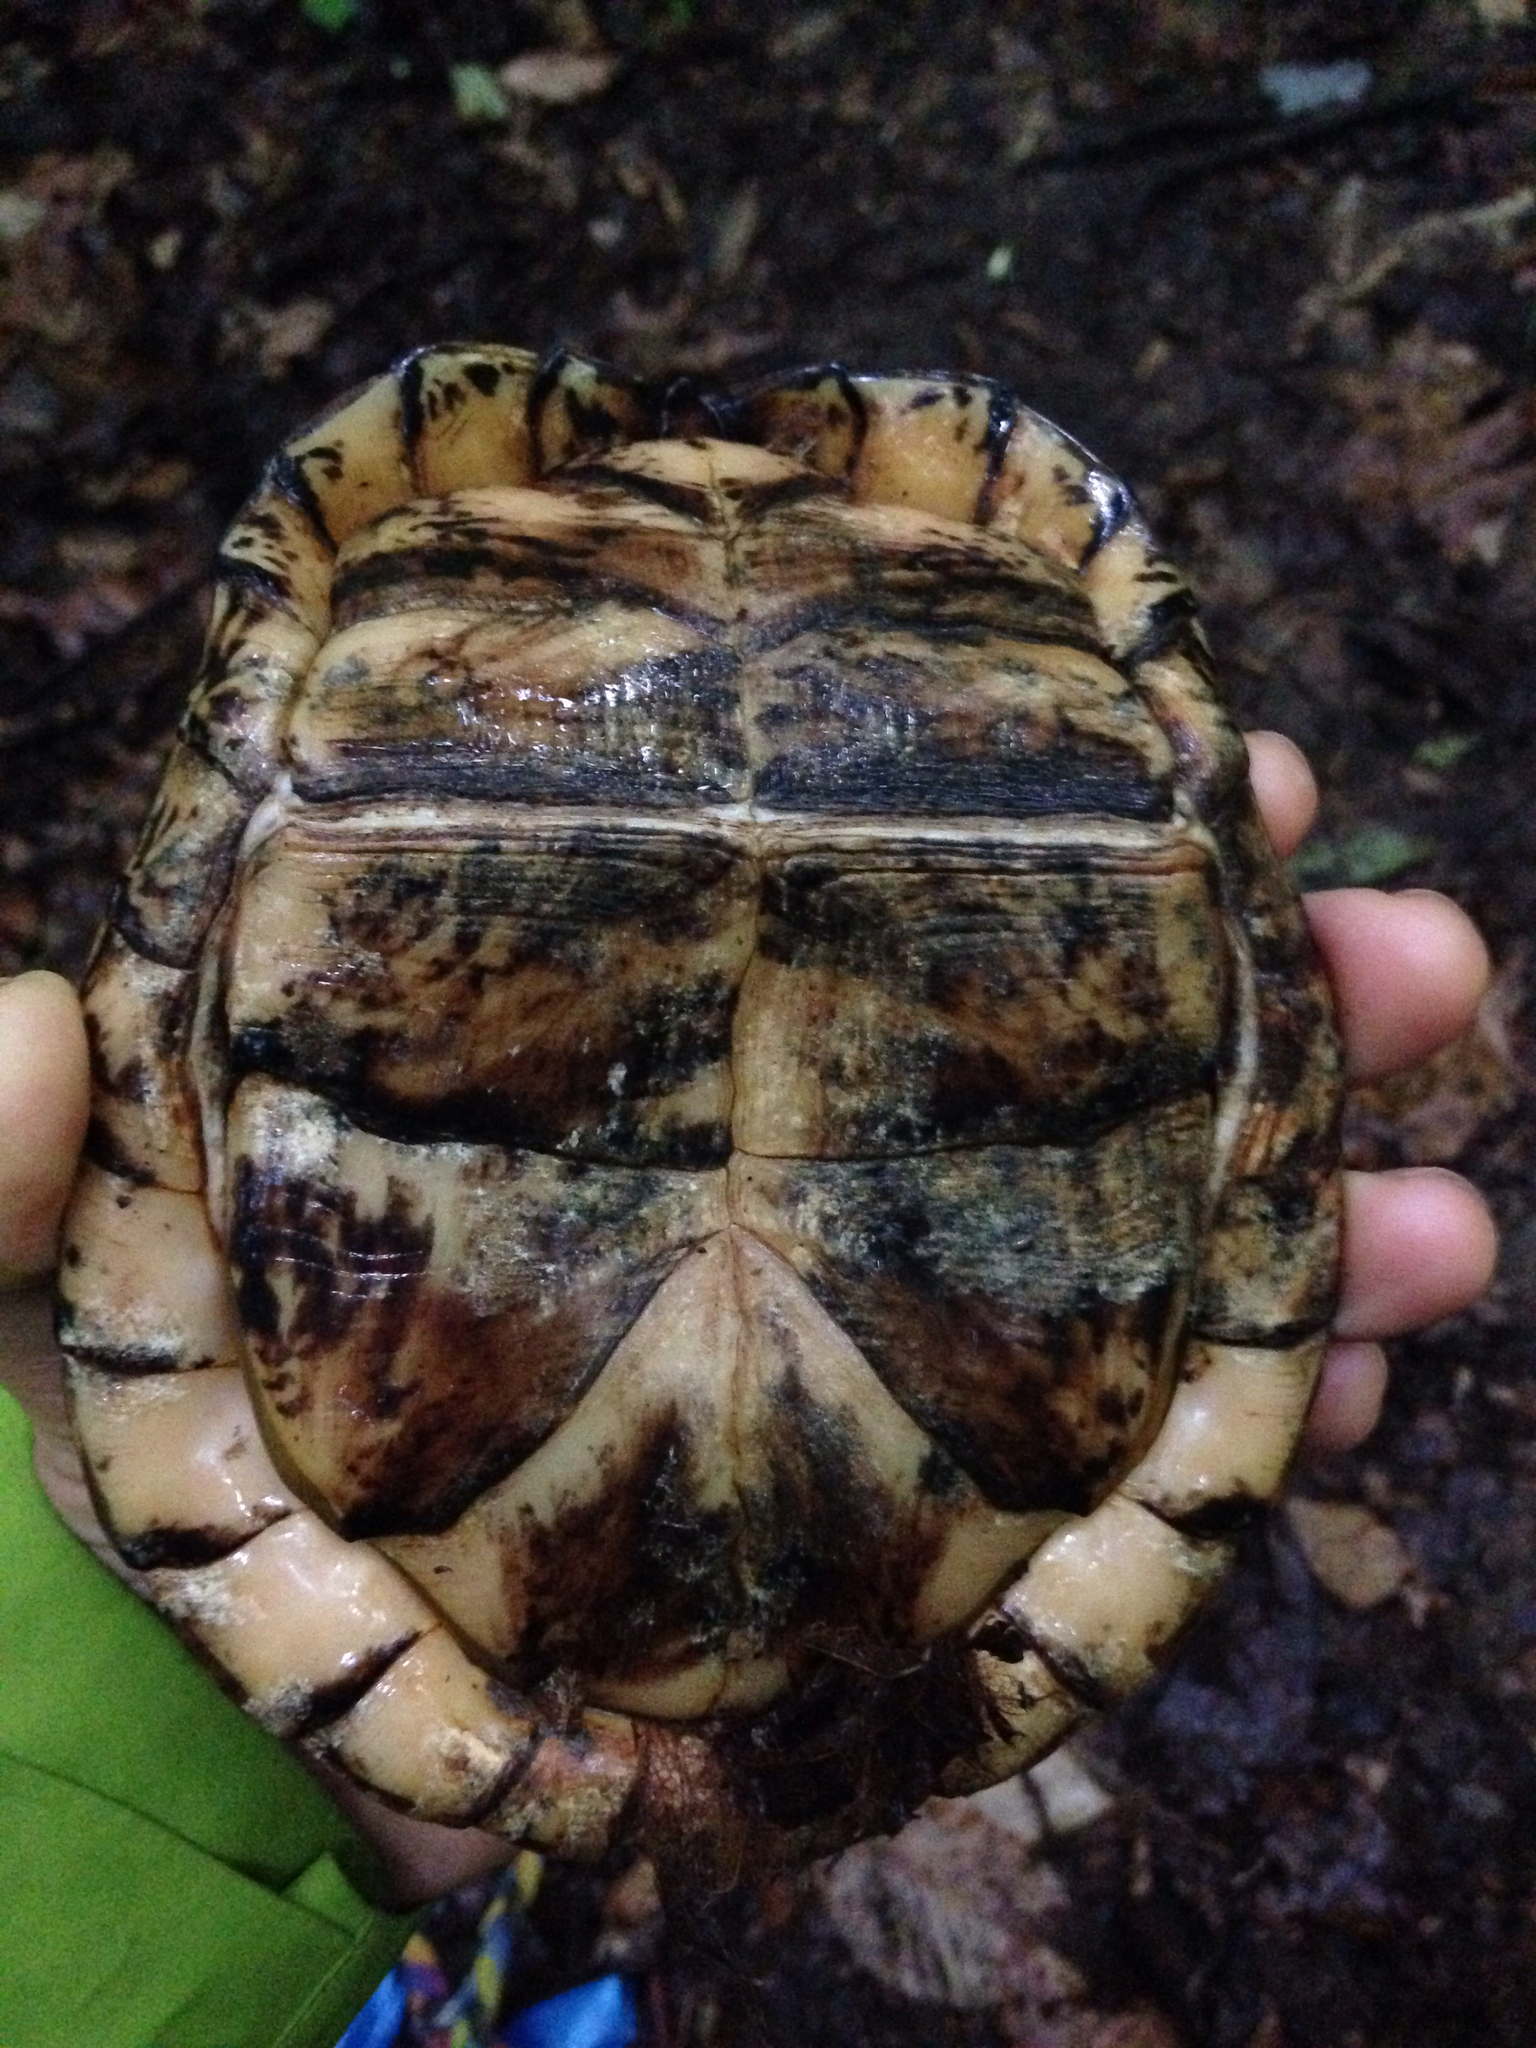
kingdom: Animalia
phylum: Chordata
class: Testudines
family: Emydidae
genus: Terrapene
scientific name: Terrapene carolina
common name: Common box turtle
